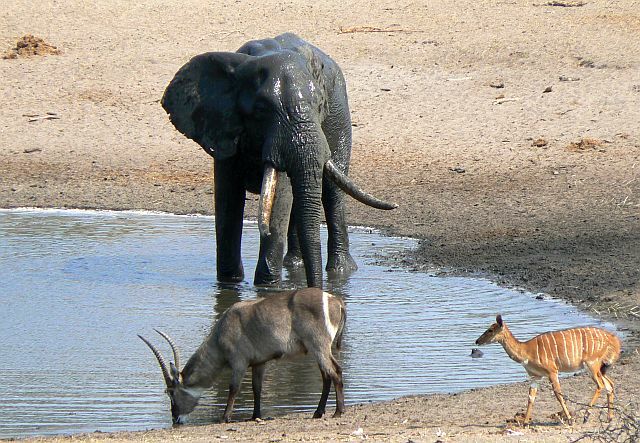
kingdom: Animalia
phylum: Chordata
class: Mammalia
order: Proboscidea
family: Elephantidae
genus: Loxodonta
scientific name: Loxodonta africana
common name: African elephant
